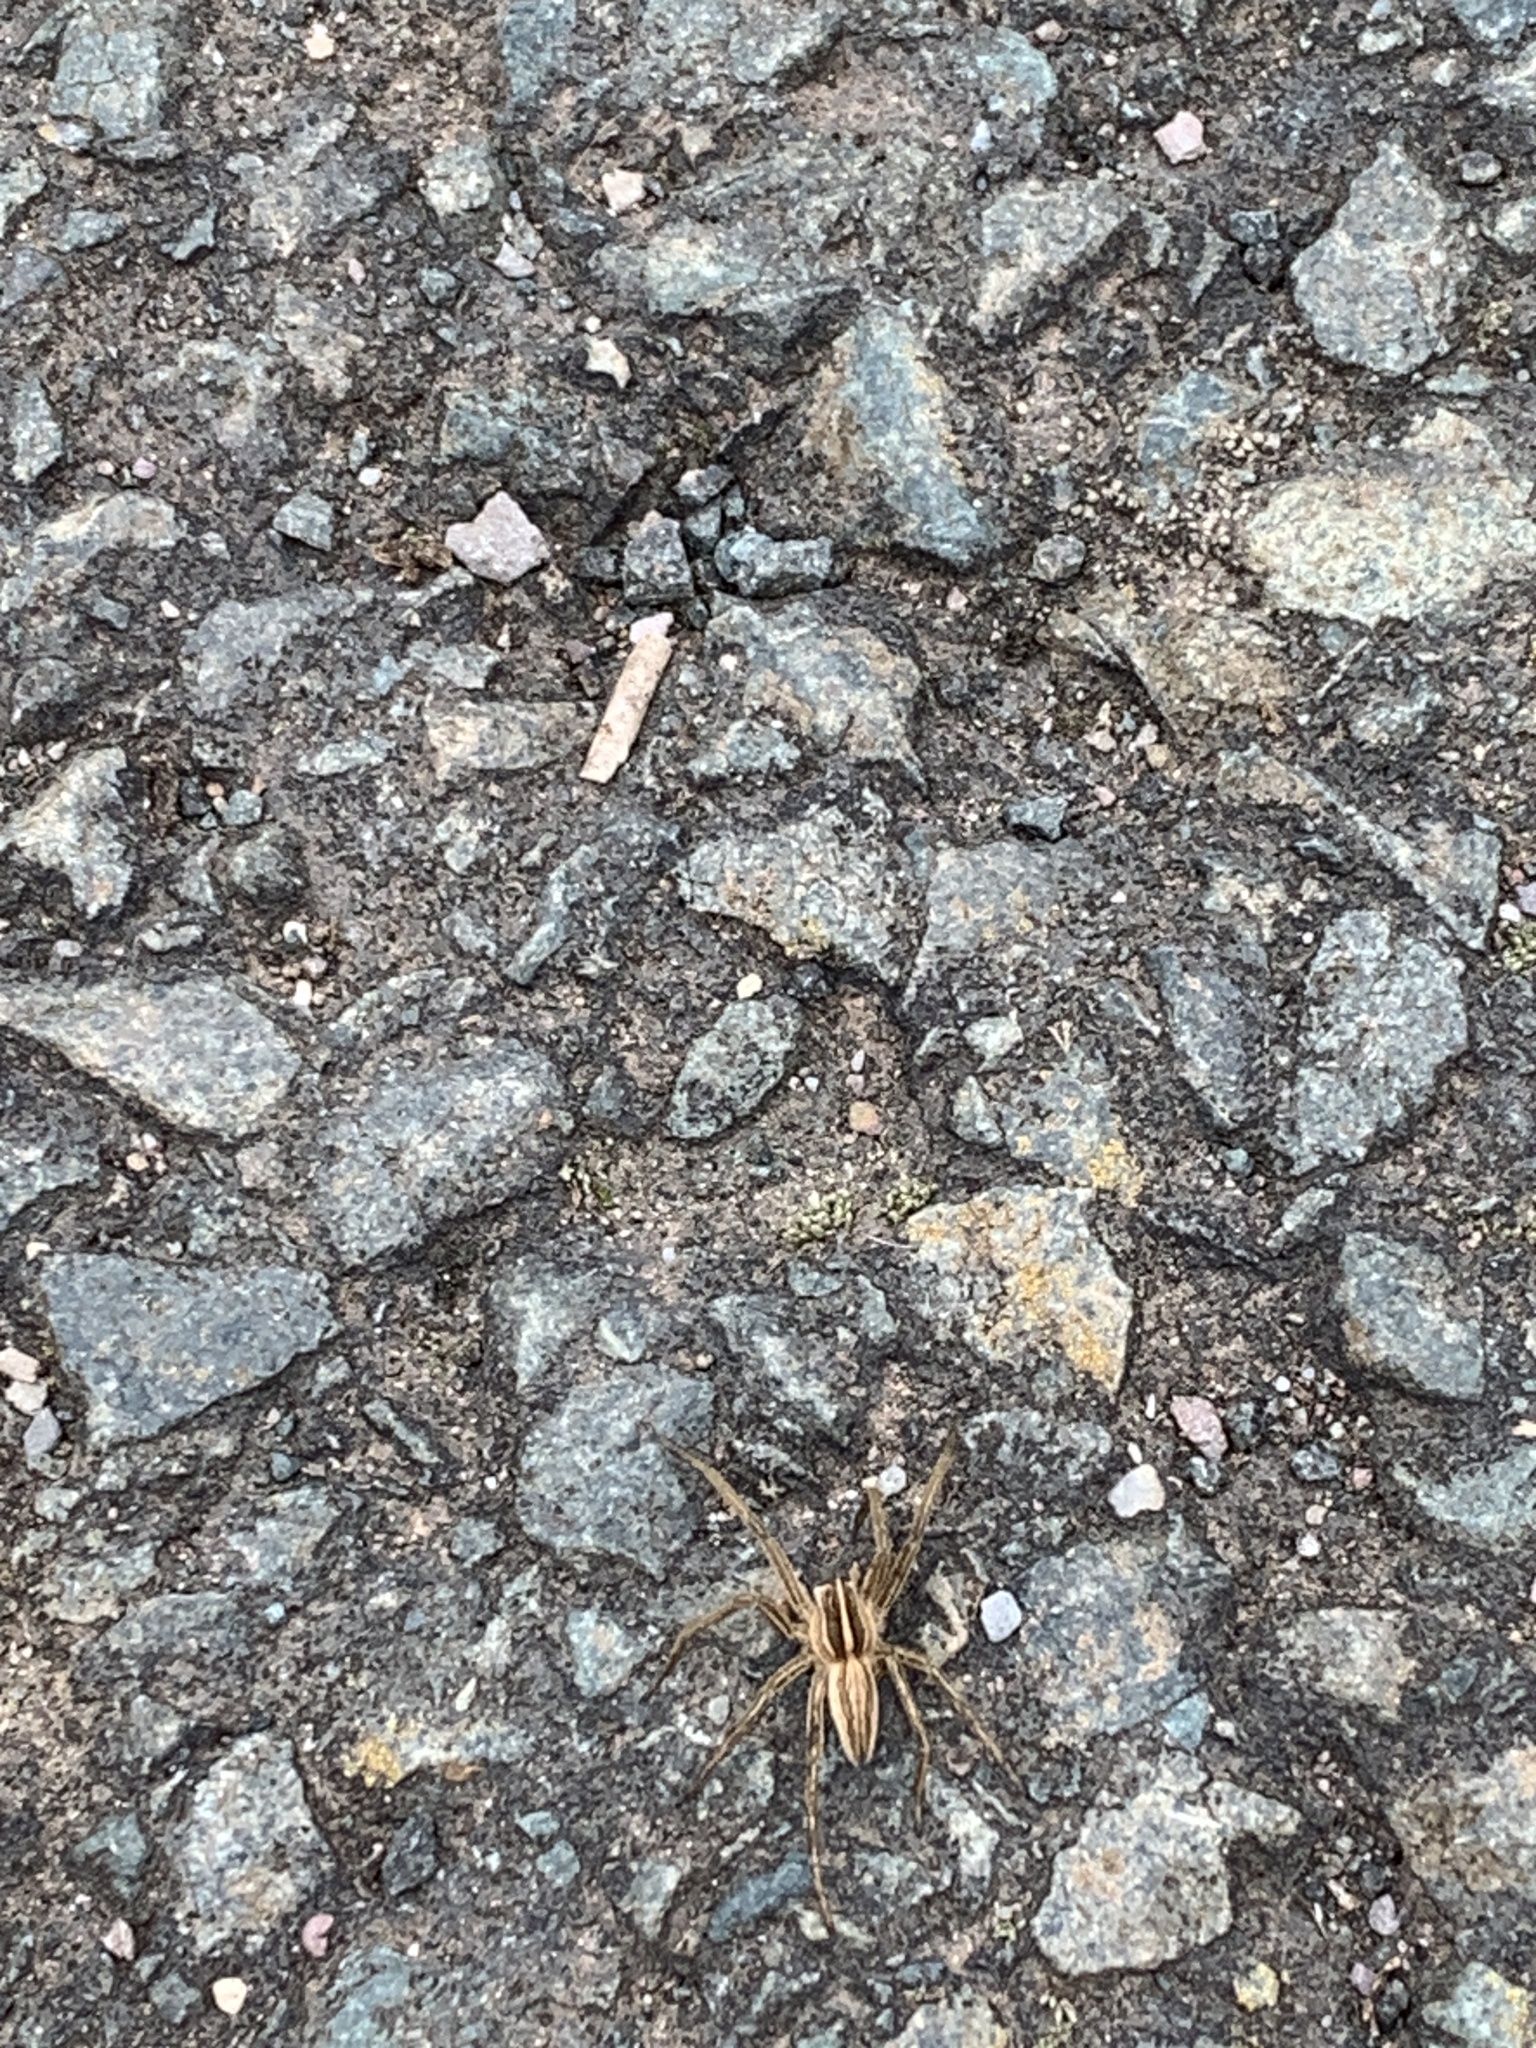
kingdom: Animalia
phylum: Arthropoda
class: Arachnida
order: Araneae
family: Pisauridae
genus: Pisaura
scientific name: Pisaura mirabilis
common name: Tent spider
